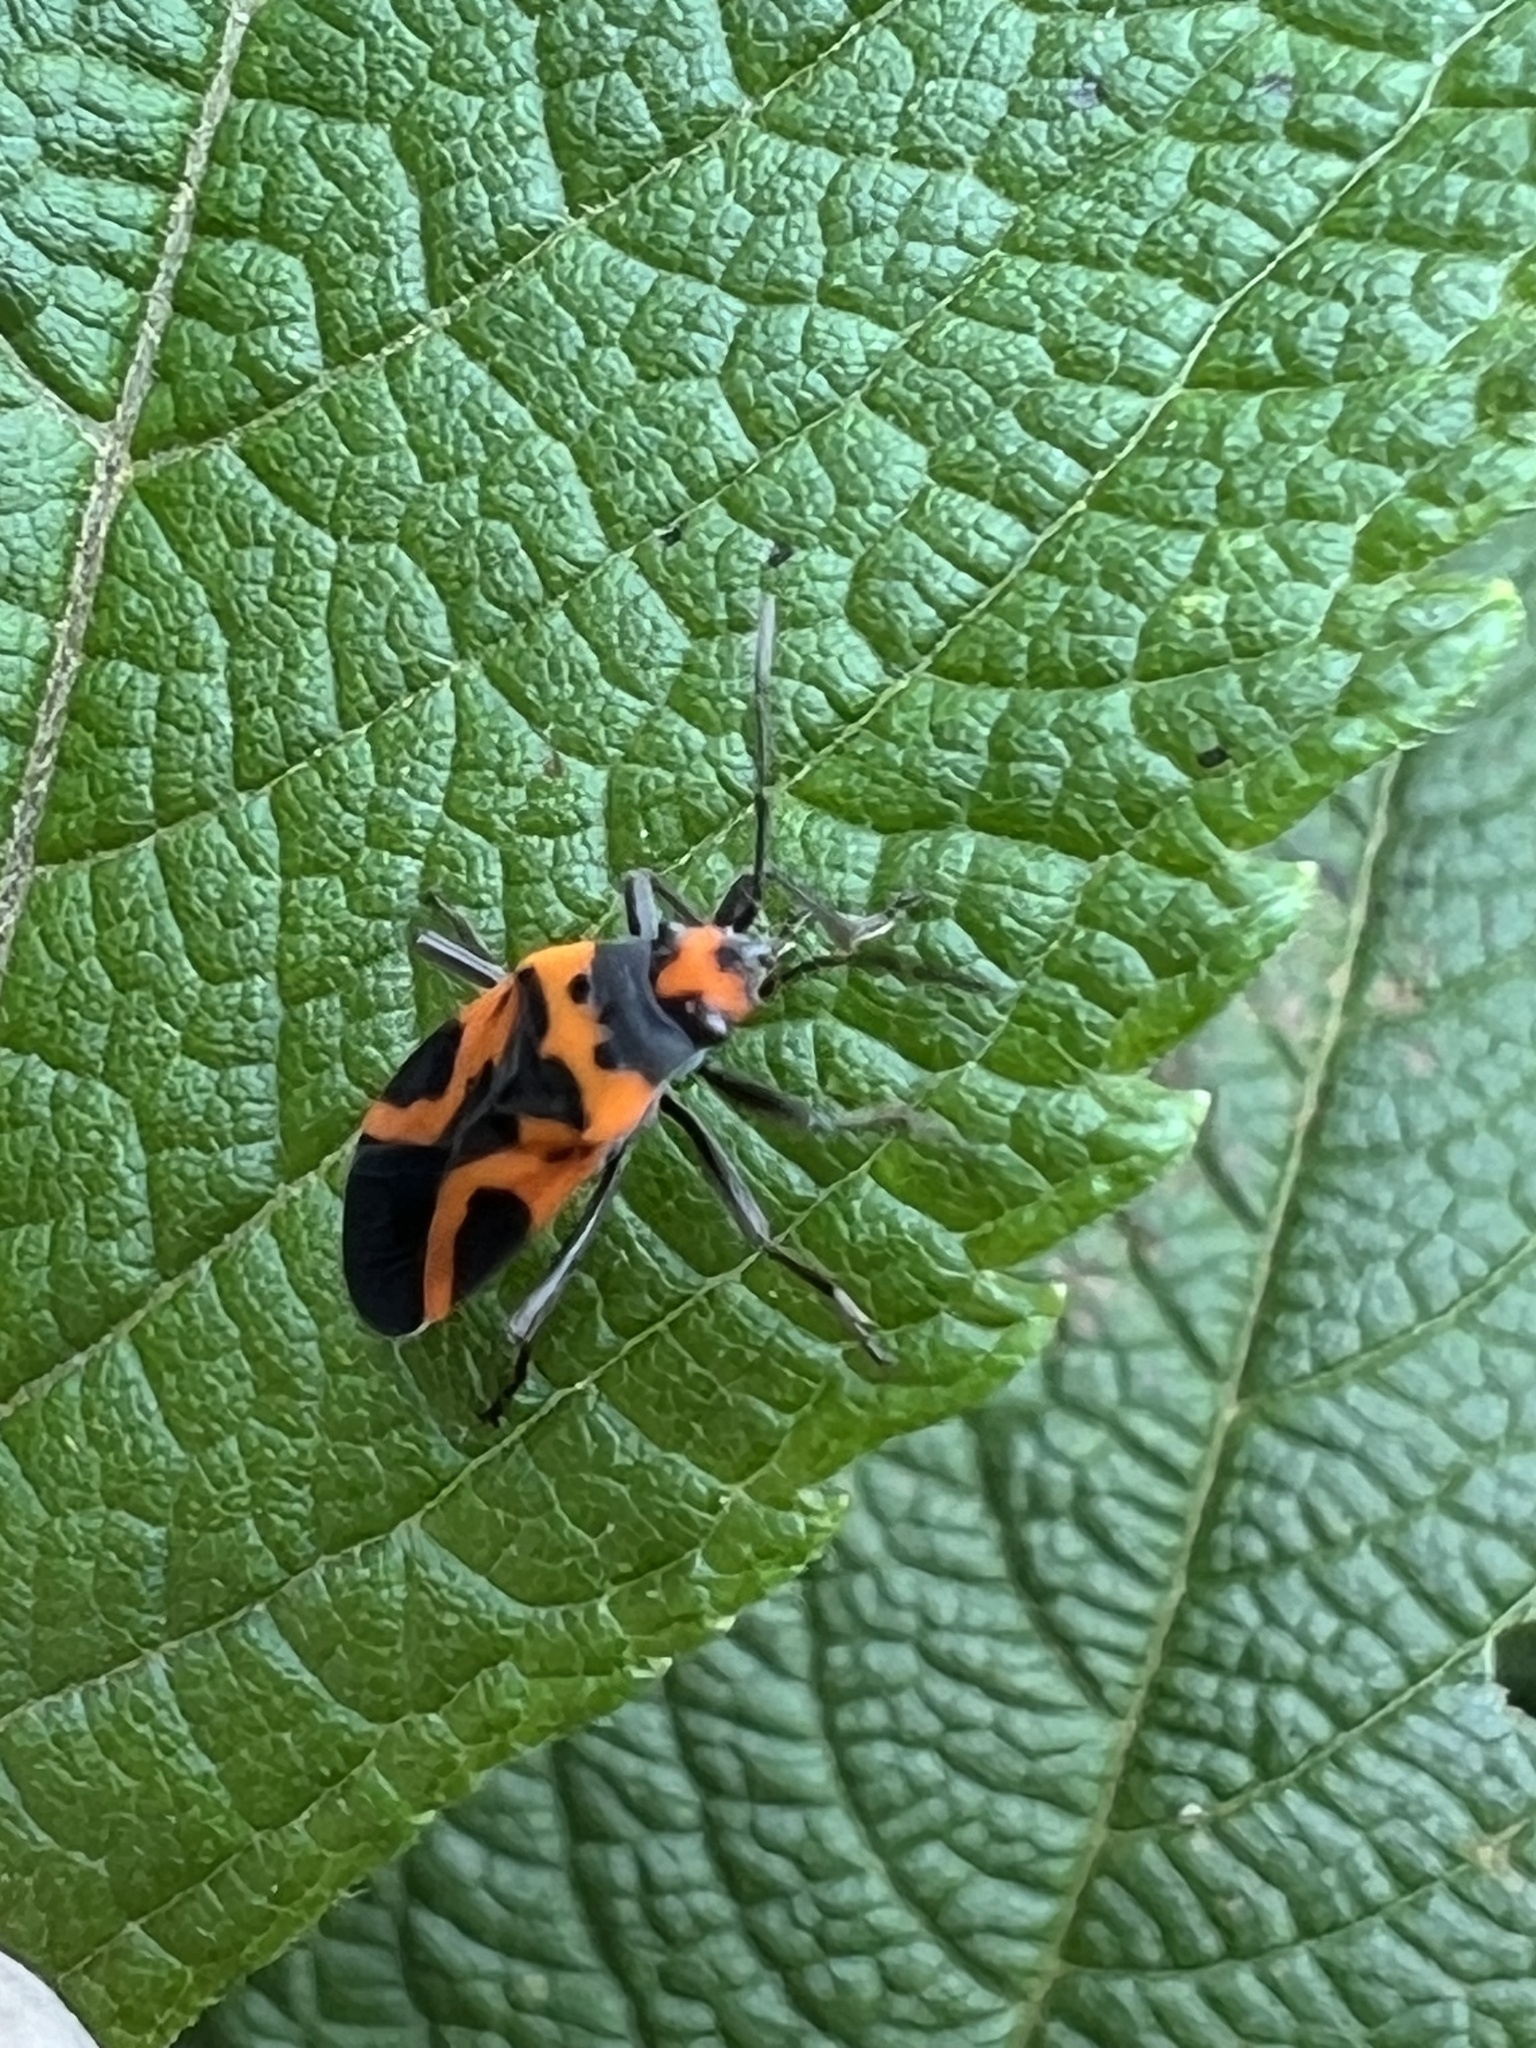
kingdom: Animalia
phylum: Arthropoda
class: Insecta
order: Hemiptera
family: Lygaeidae
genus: Lygaeus
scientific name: Lygaeus turcicus
